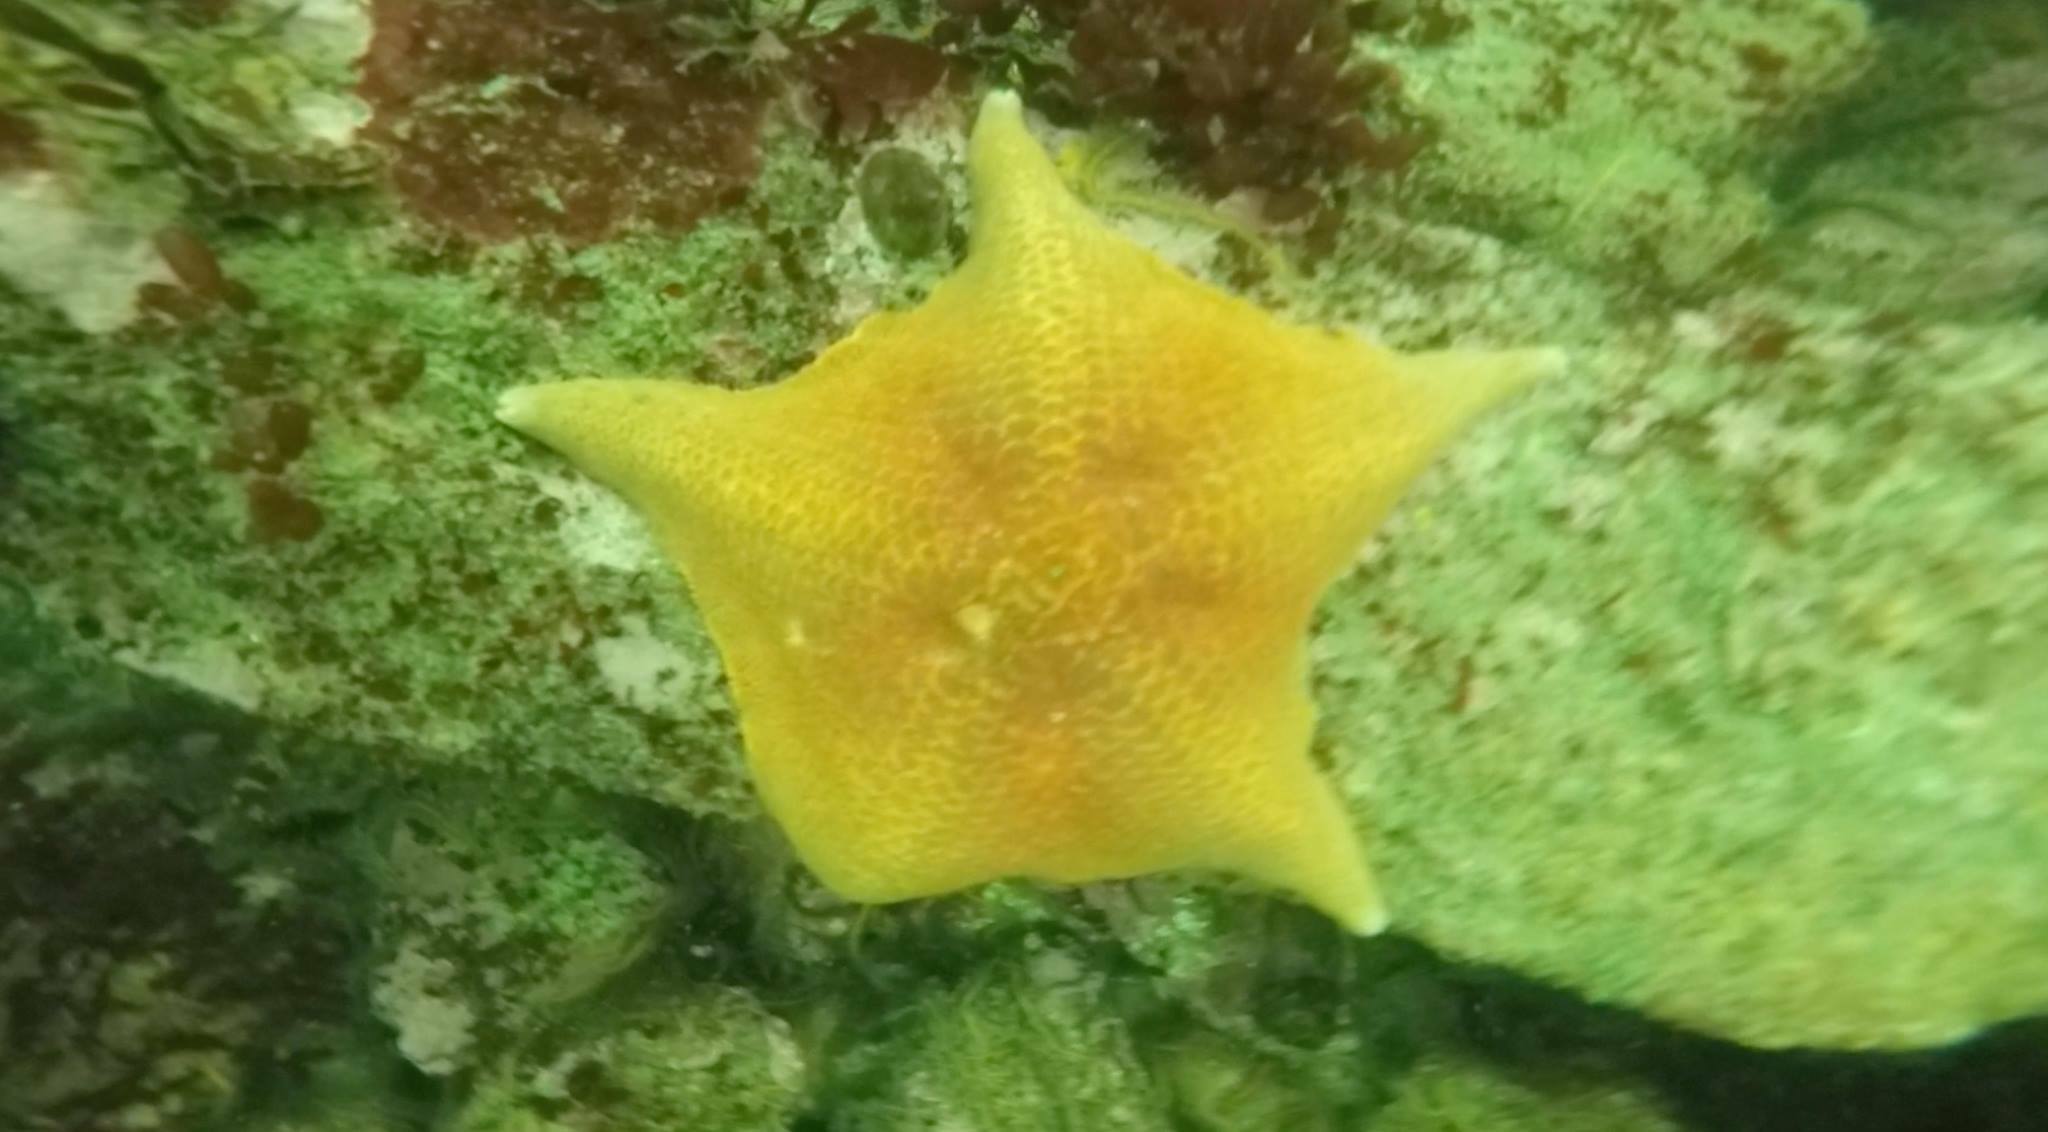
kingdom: Animalia
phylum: Echinodermata
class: Asteroidea
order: Valvatida
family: Asterinidae
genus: Patiria
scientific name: Patiria miniata
